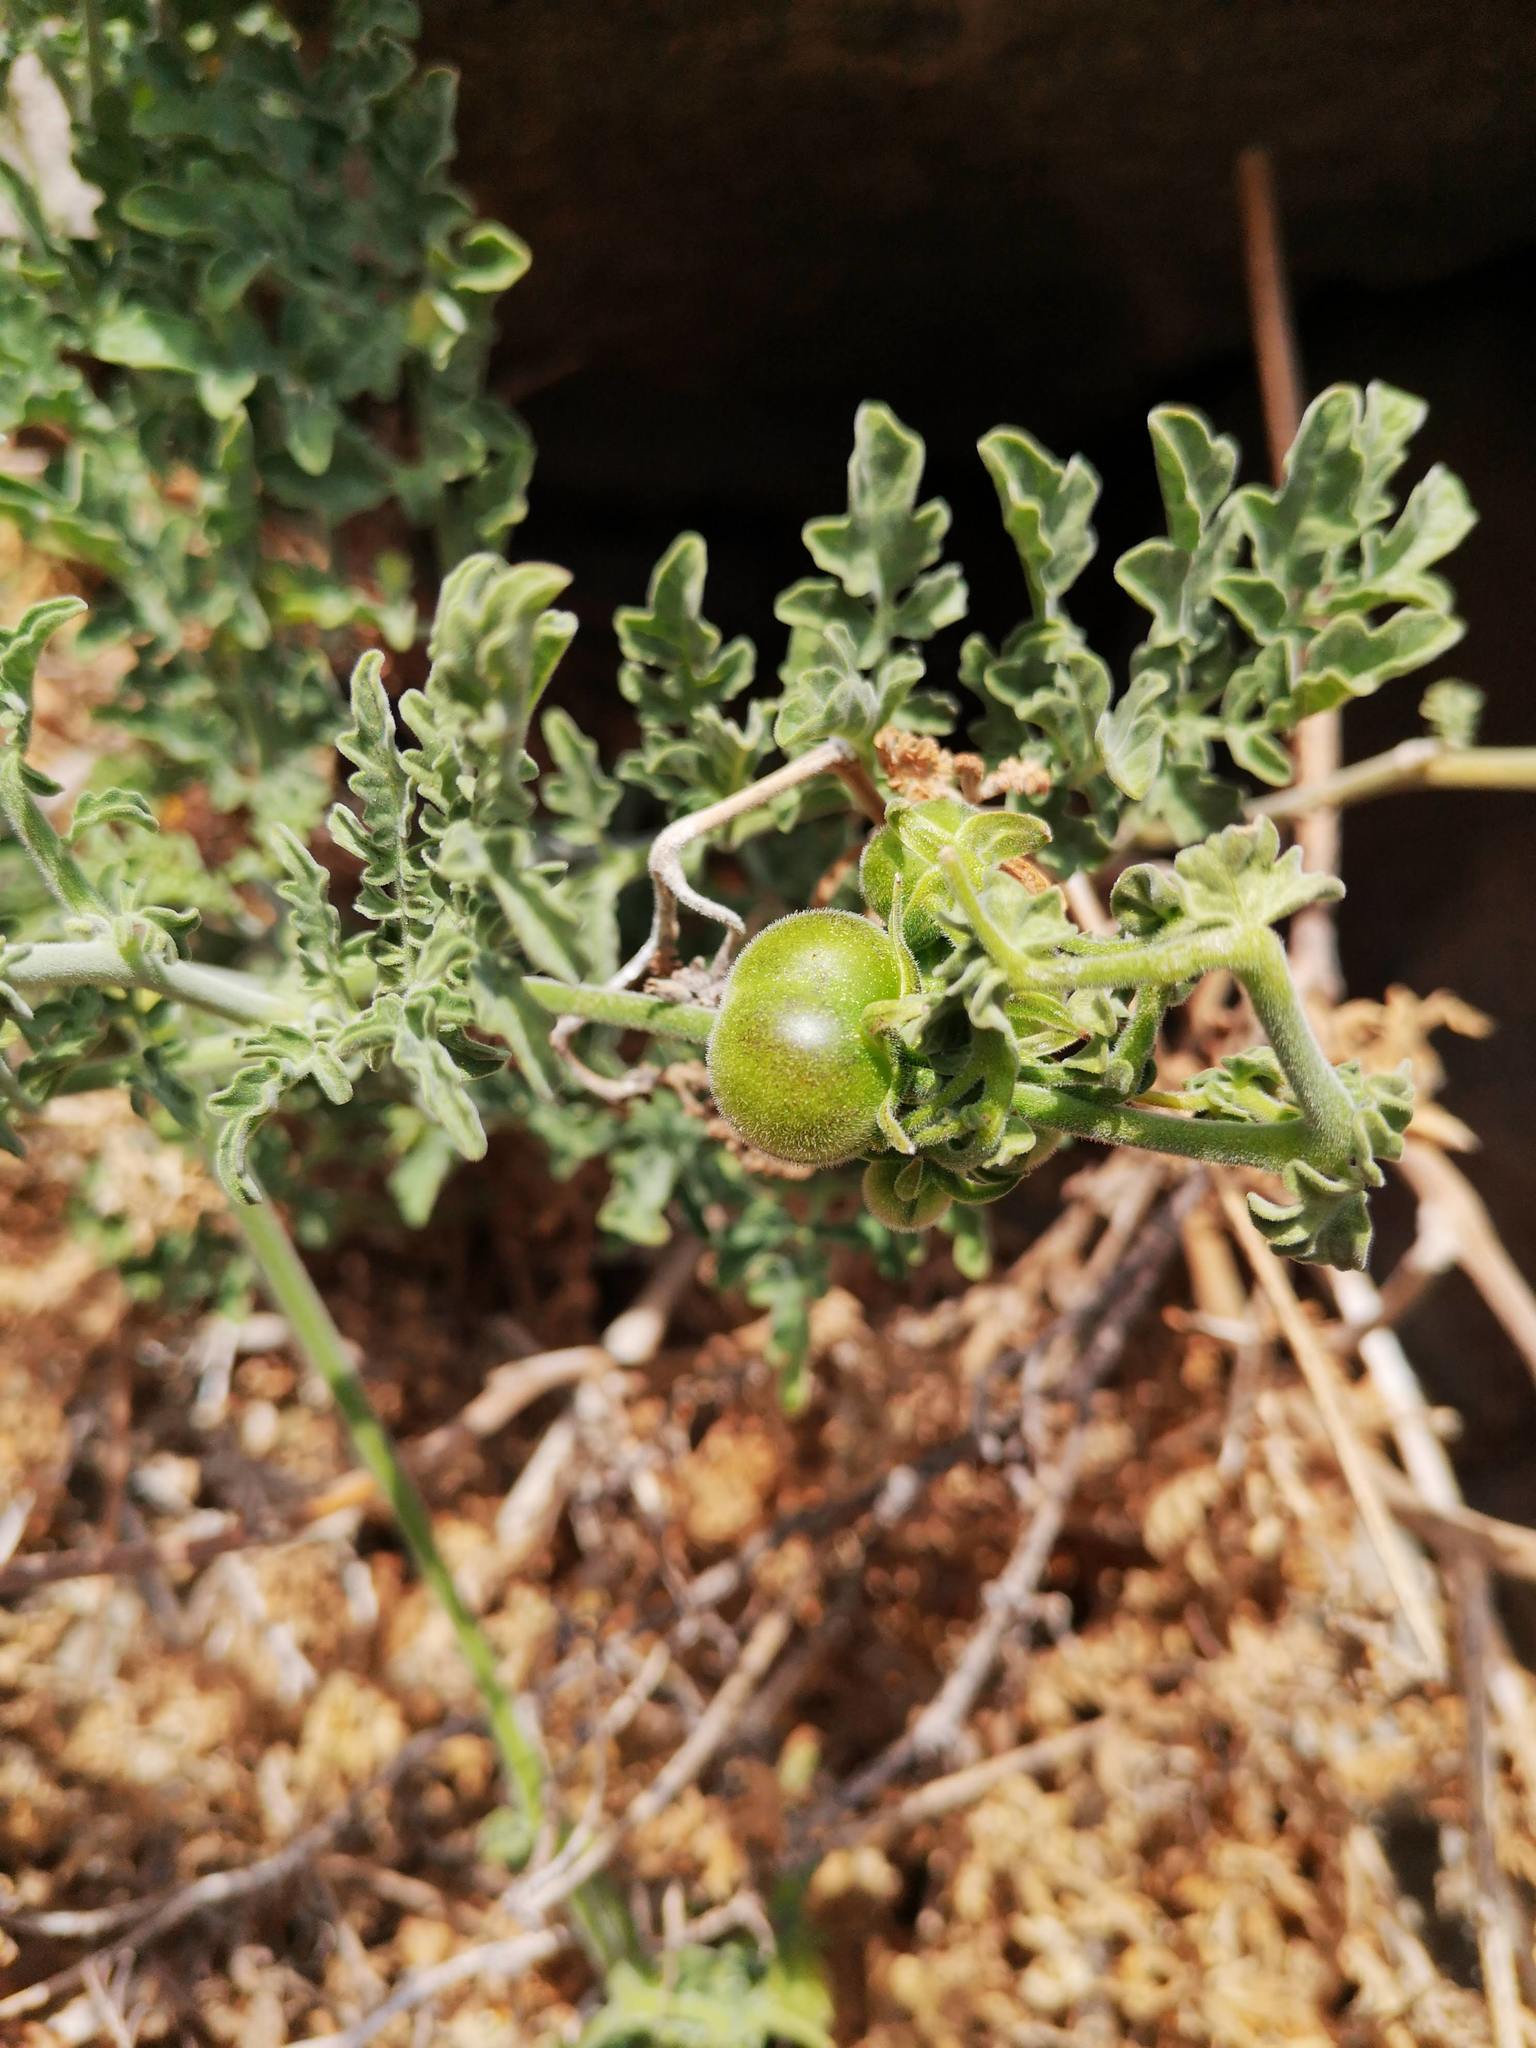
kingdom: Plantae
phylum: Tracheophyta
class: Magnoliopsida
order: Solanales
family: Solanaceae
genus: Solanum
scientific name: Solanum chilense
